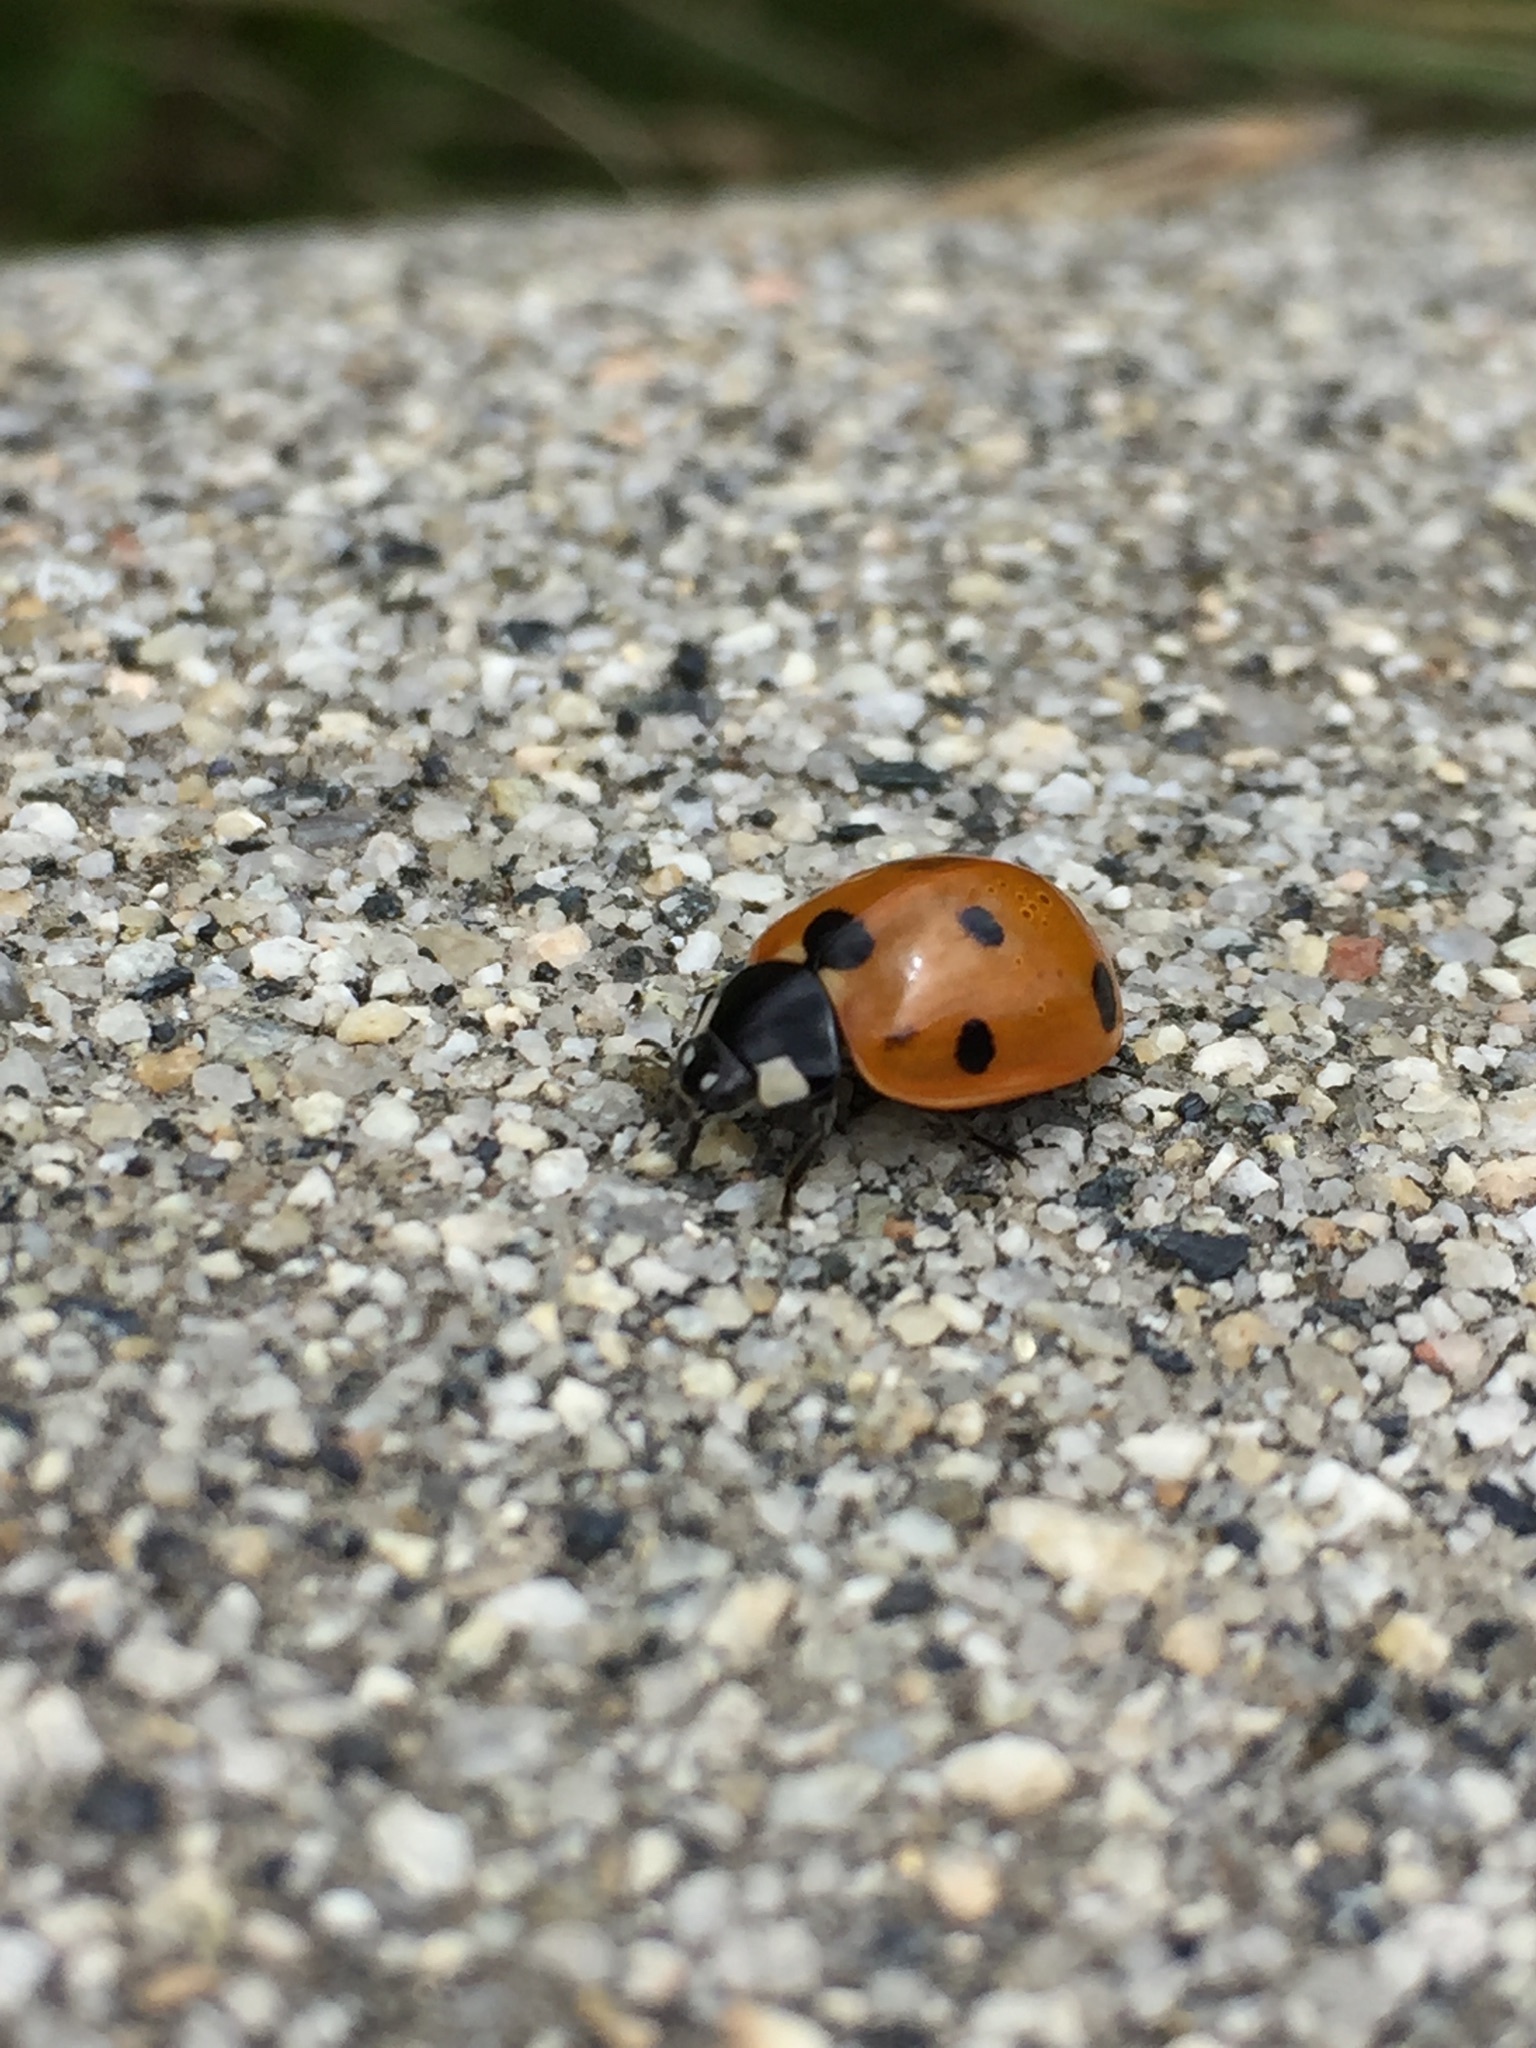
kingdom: Animalia
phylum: Arthropoda
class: Insecta
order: Coleoptera
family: Coccinellidae
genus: Coccinella
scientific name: Coccinella septempunctata
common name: Sevenspotted lady beetle
